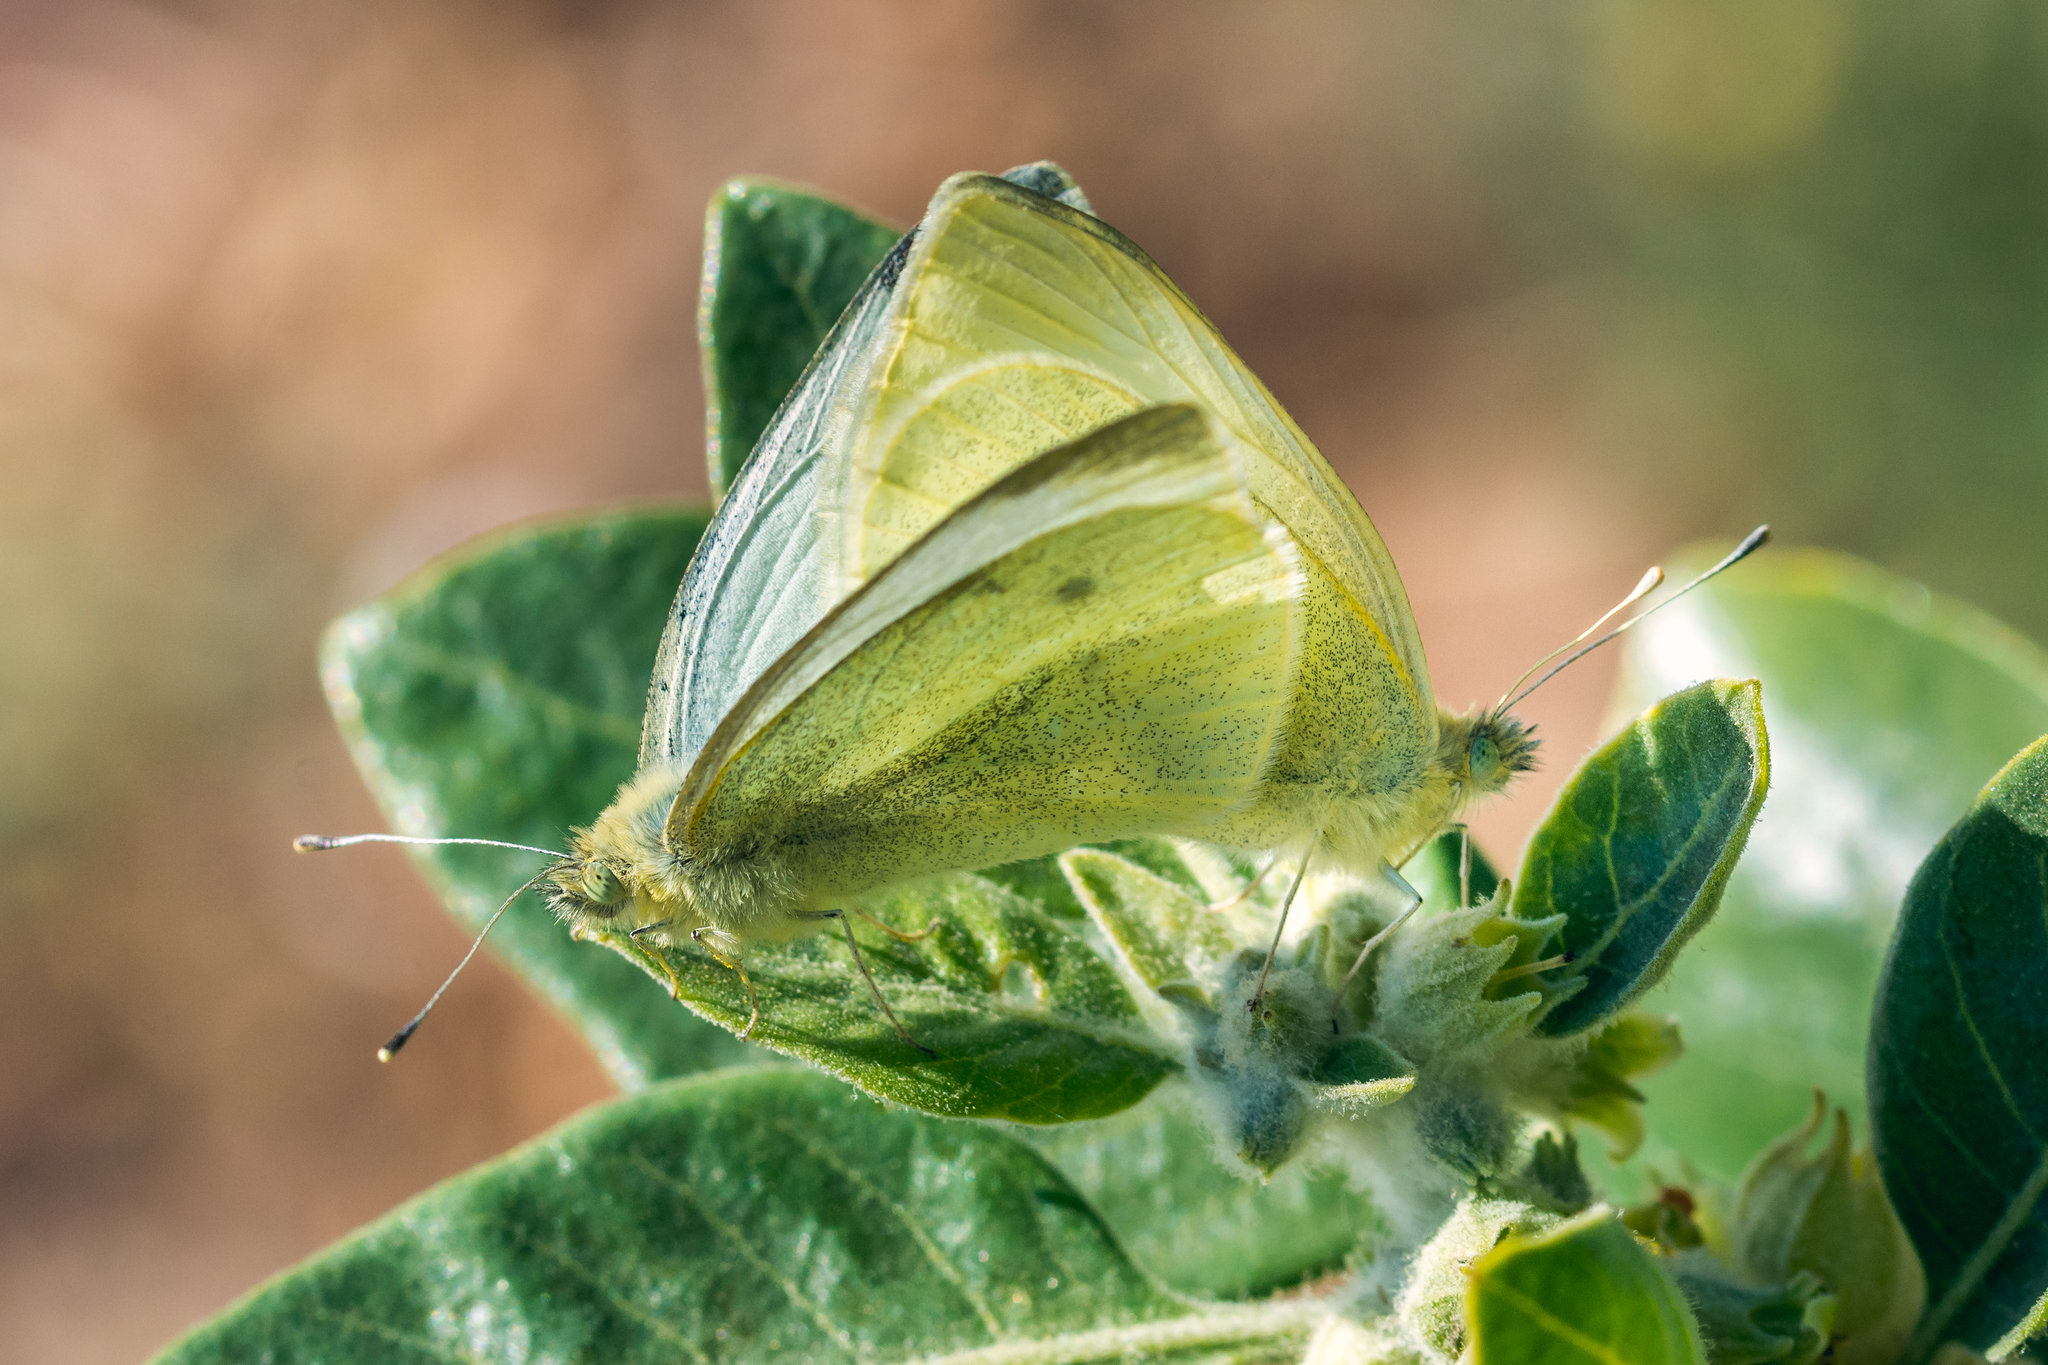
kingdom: Animalia
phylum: Arthropoda
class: Insecta
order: Lepidoptera
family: Pieridae
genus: Pieris
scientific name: Pieris rapae
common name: Small white
